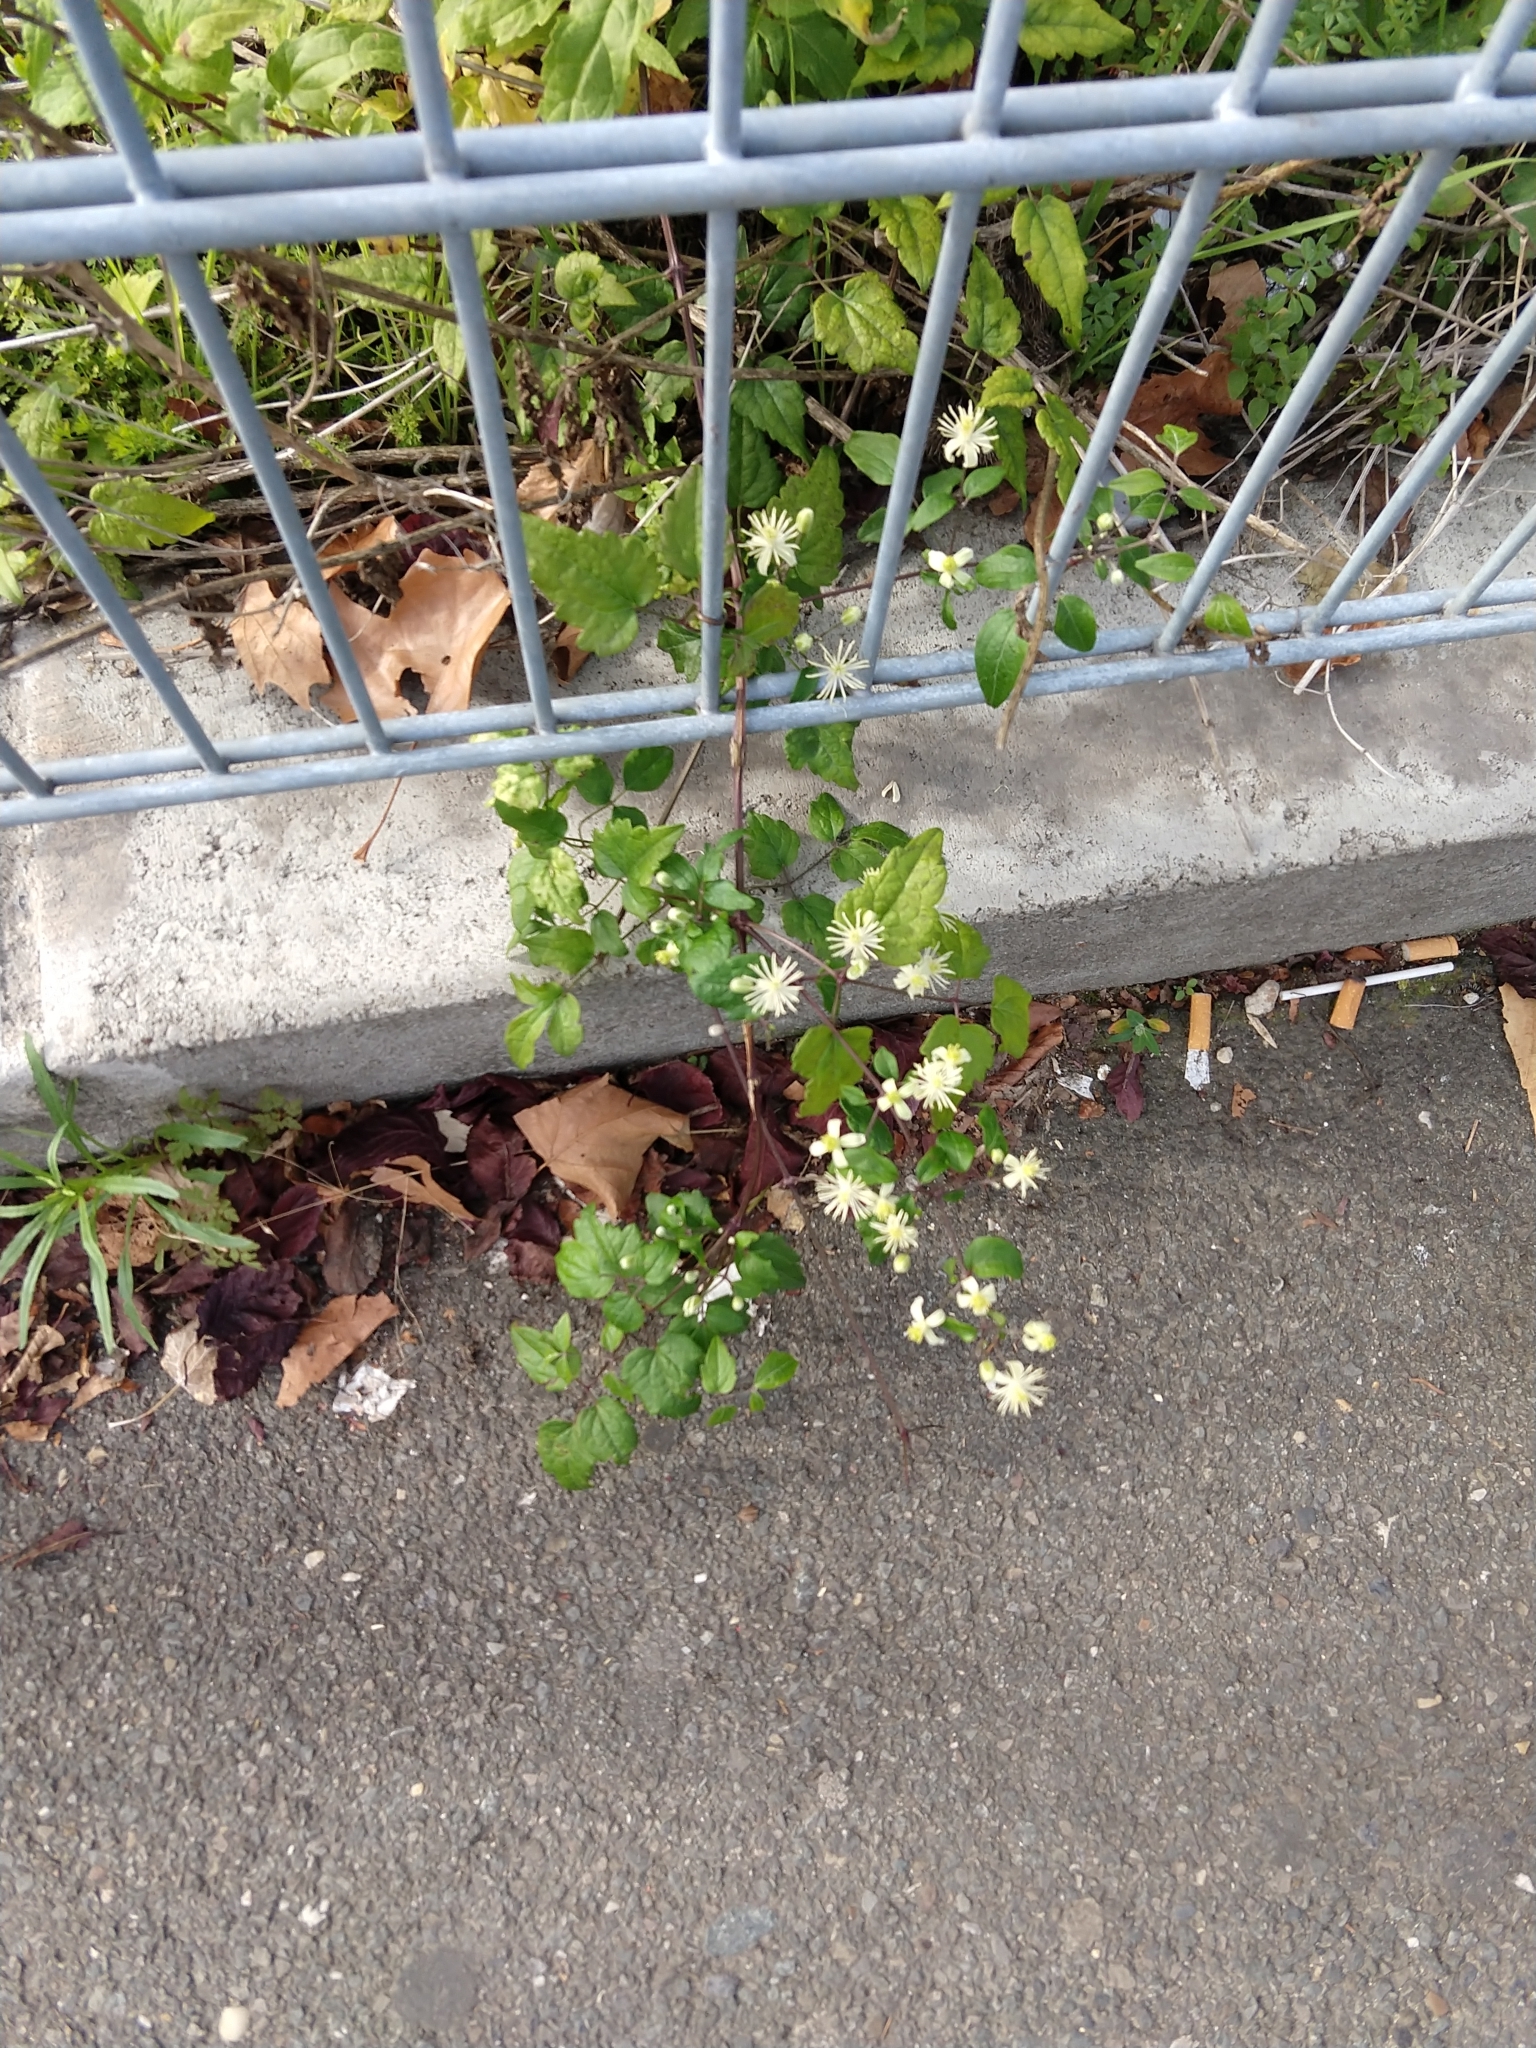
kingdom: Plantae
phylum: Tracheophyta
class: Magnoliopsida
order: Ranunculales
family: Ranunculaceae
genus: Clematis
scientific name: Clematis vitalba
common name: Evergreen clematis
